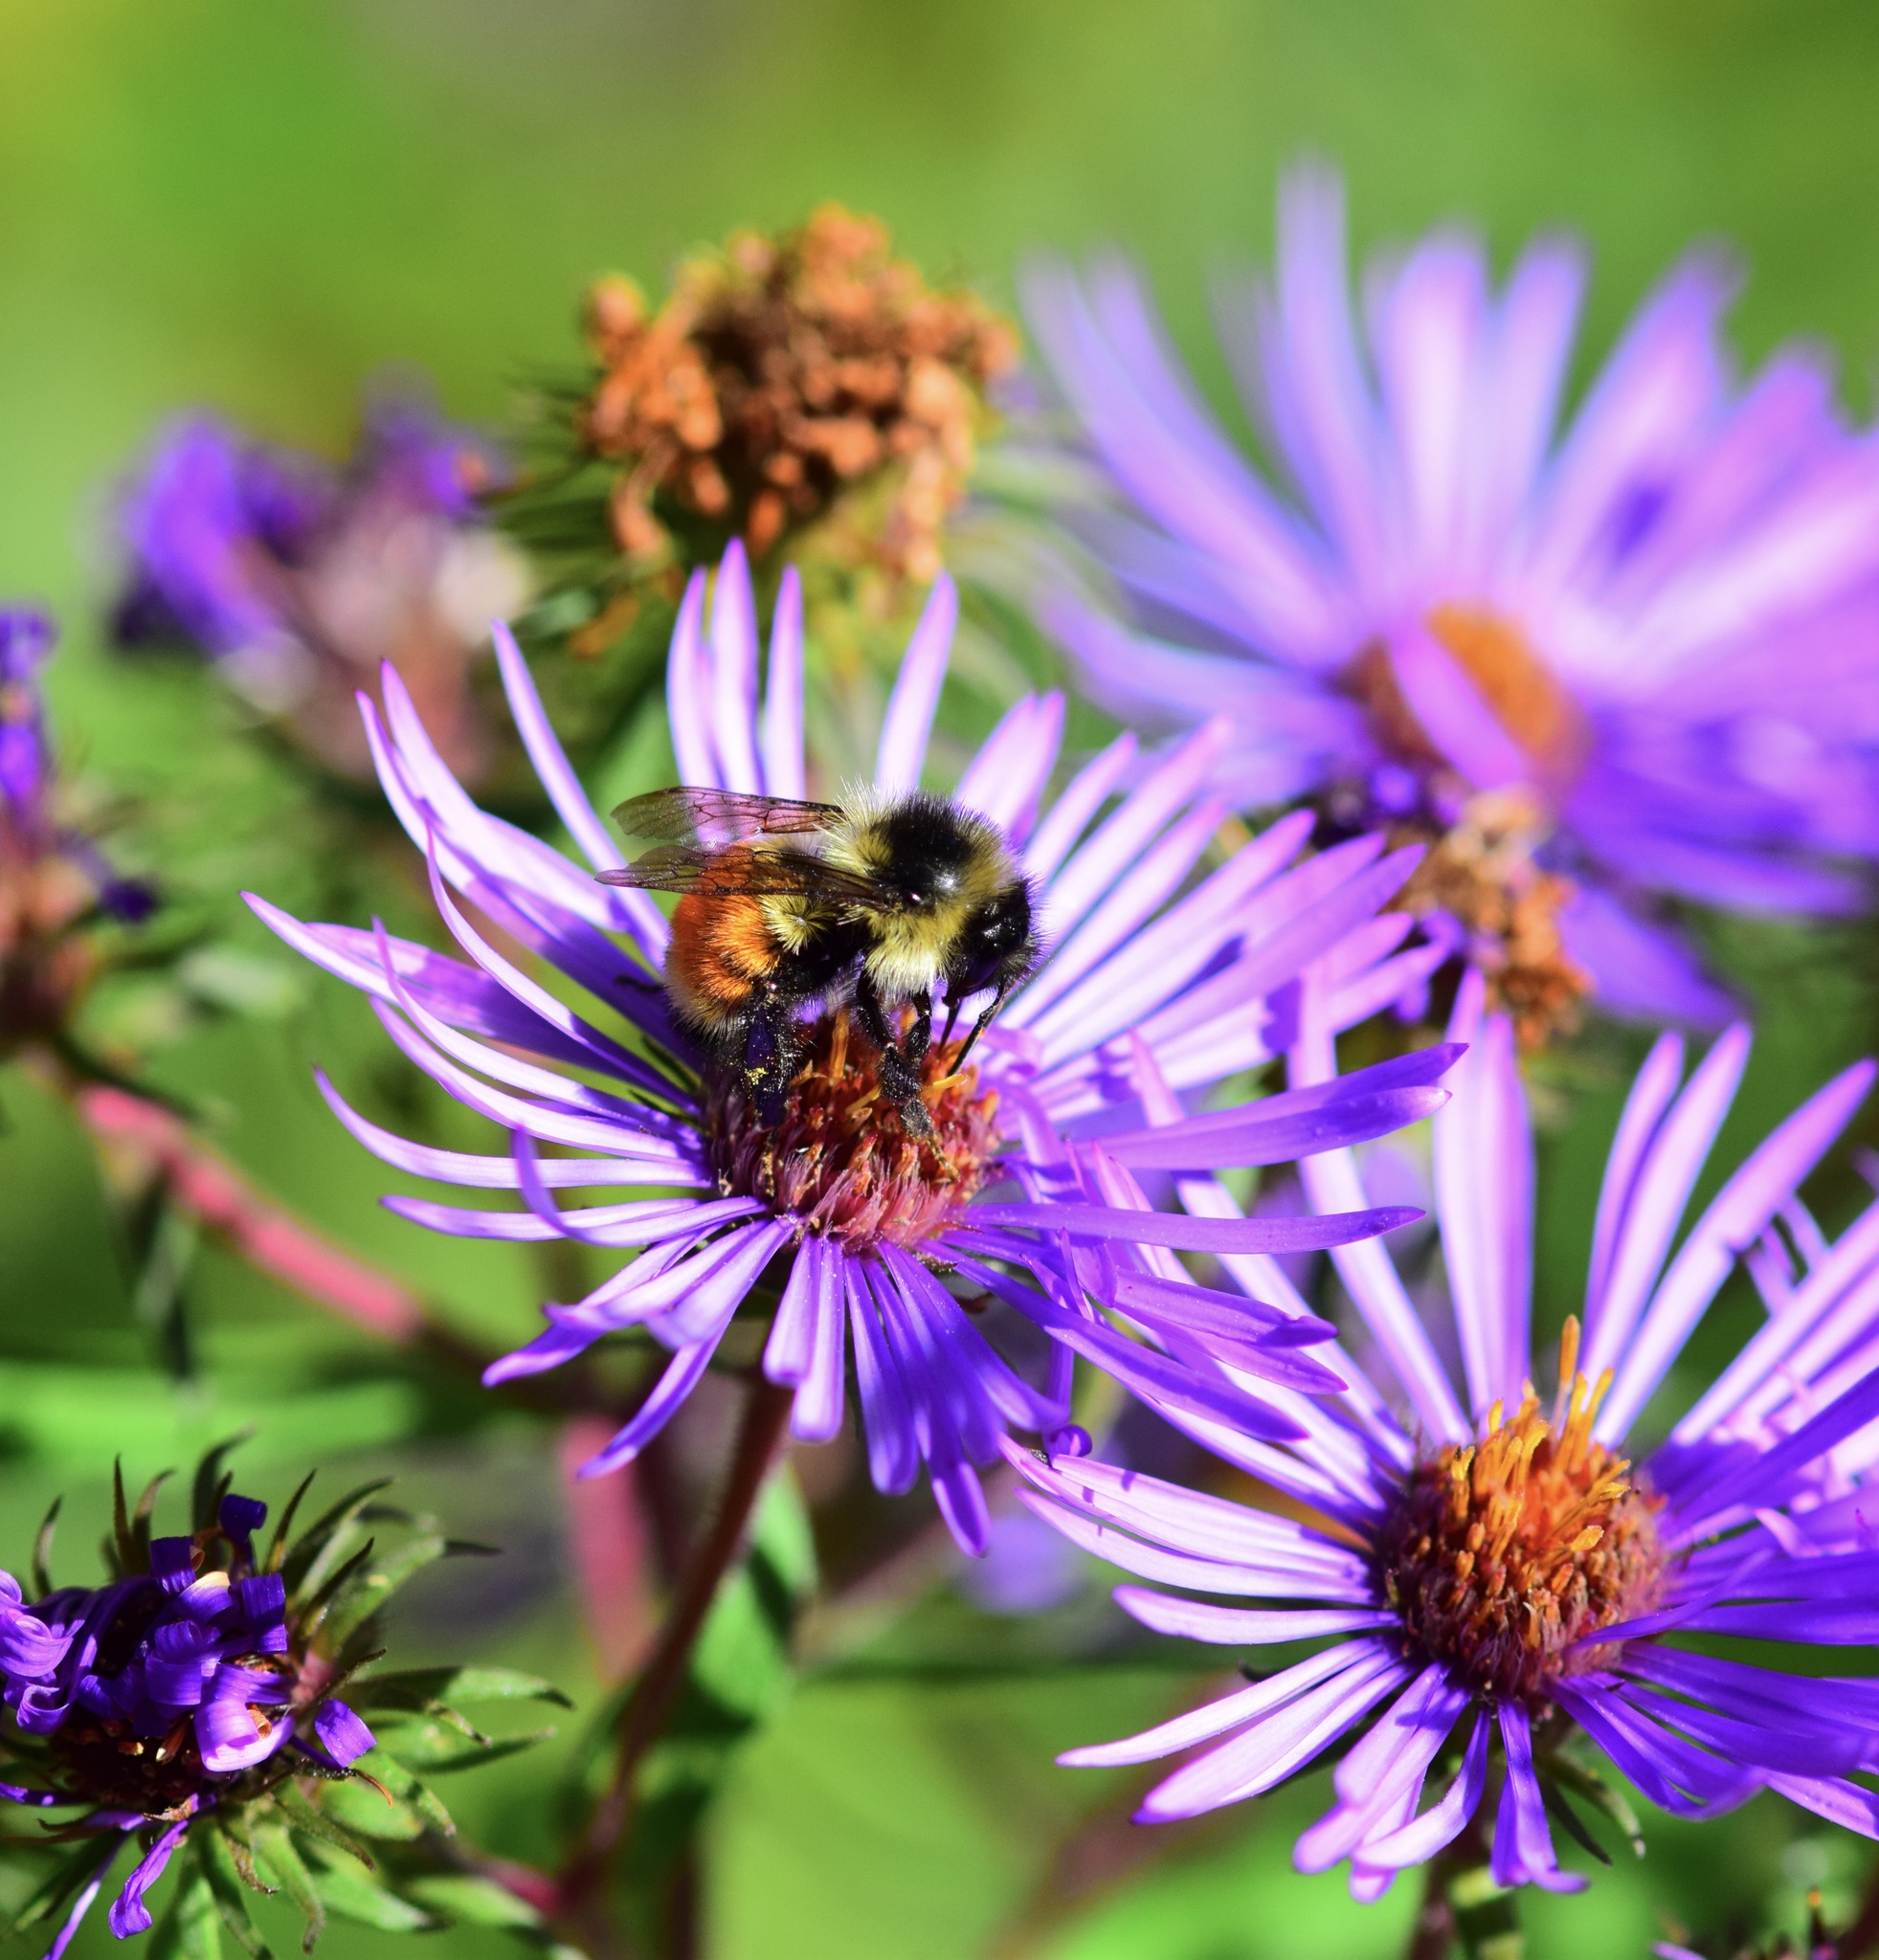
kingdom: Animalia
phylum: Arthropoda
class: Insecta
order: Hymenoptera
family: Apidae
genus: Bombus
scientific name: Bombus ternarius
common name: Tri-colored bumble bee
